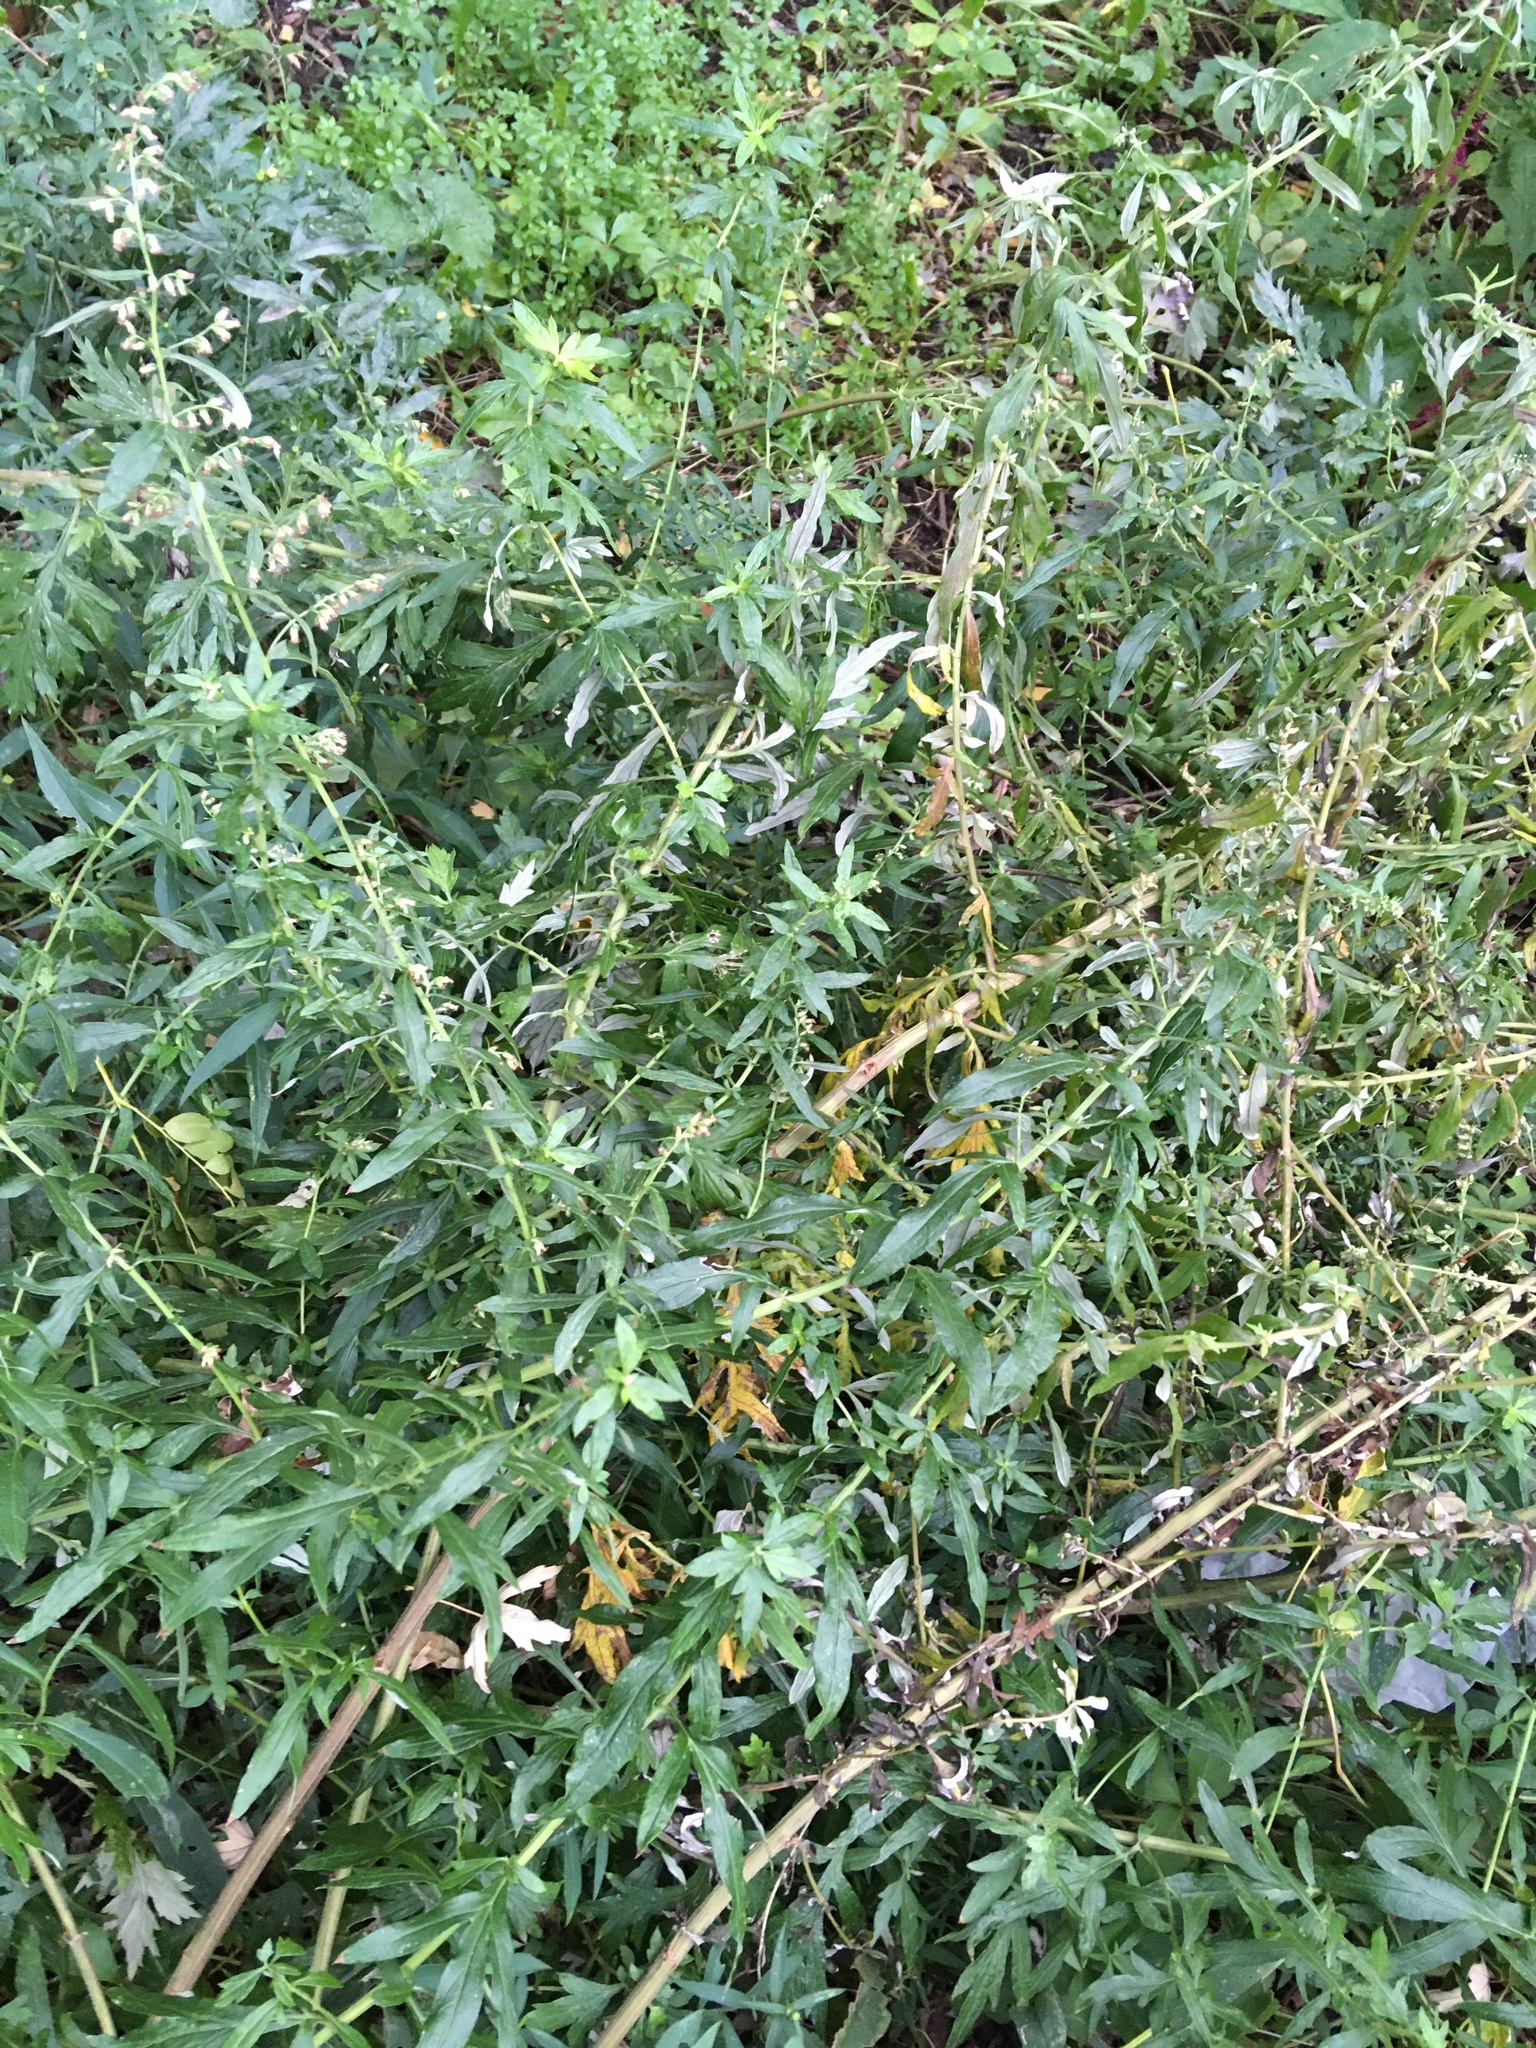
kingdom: Plantae
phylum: Tracheophyta
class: Magnoliopsida
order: Asterales
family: Asteraceae
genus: Artemisia
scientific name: Artemisia vulgaris
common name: Mugwort
